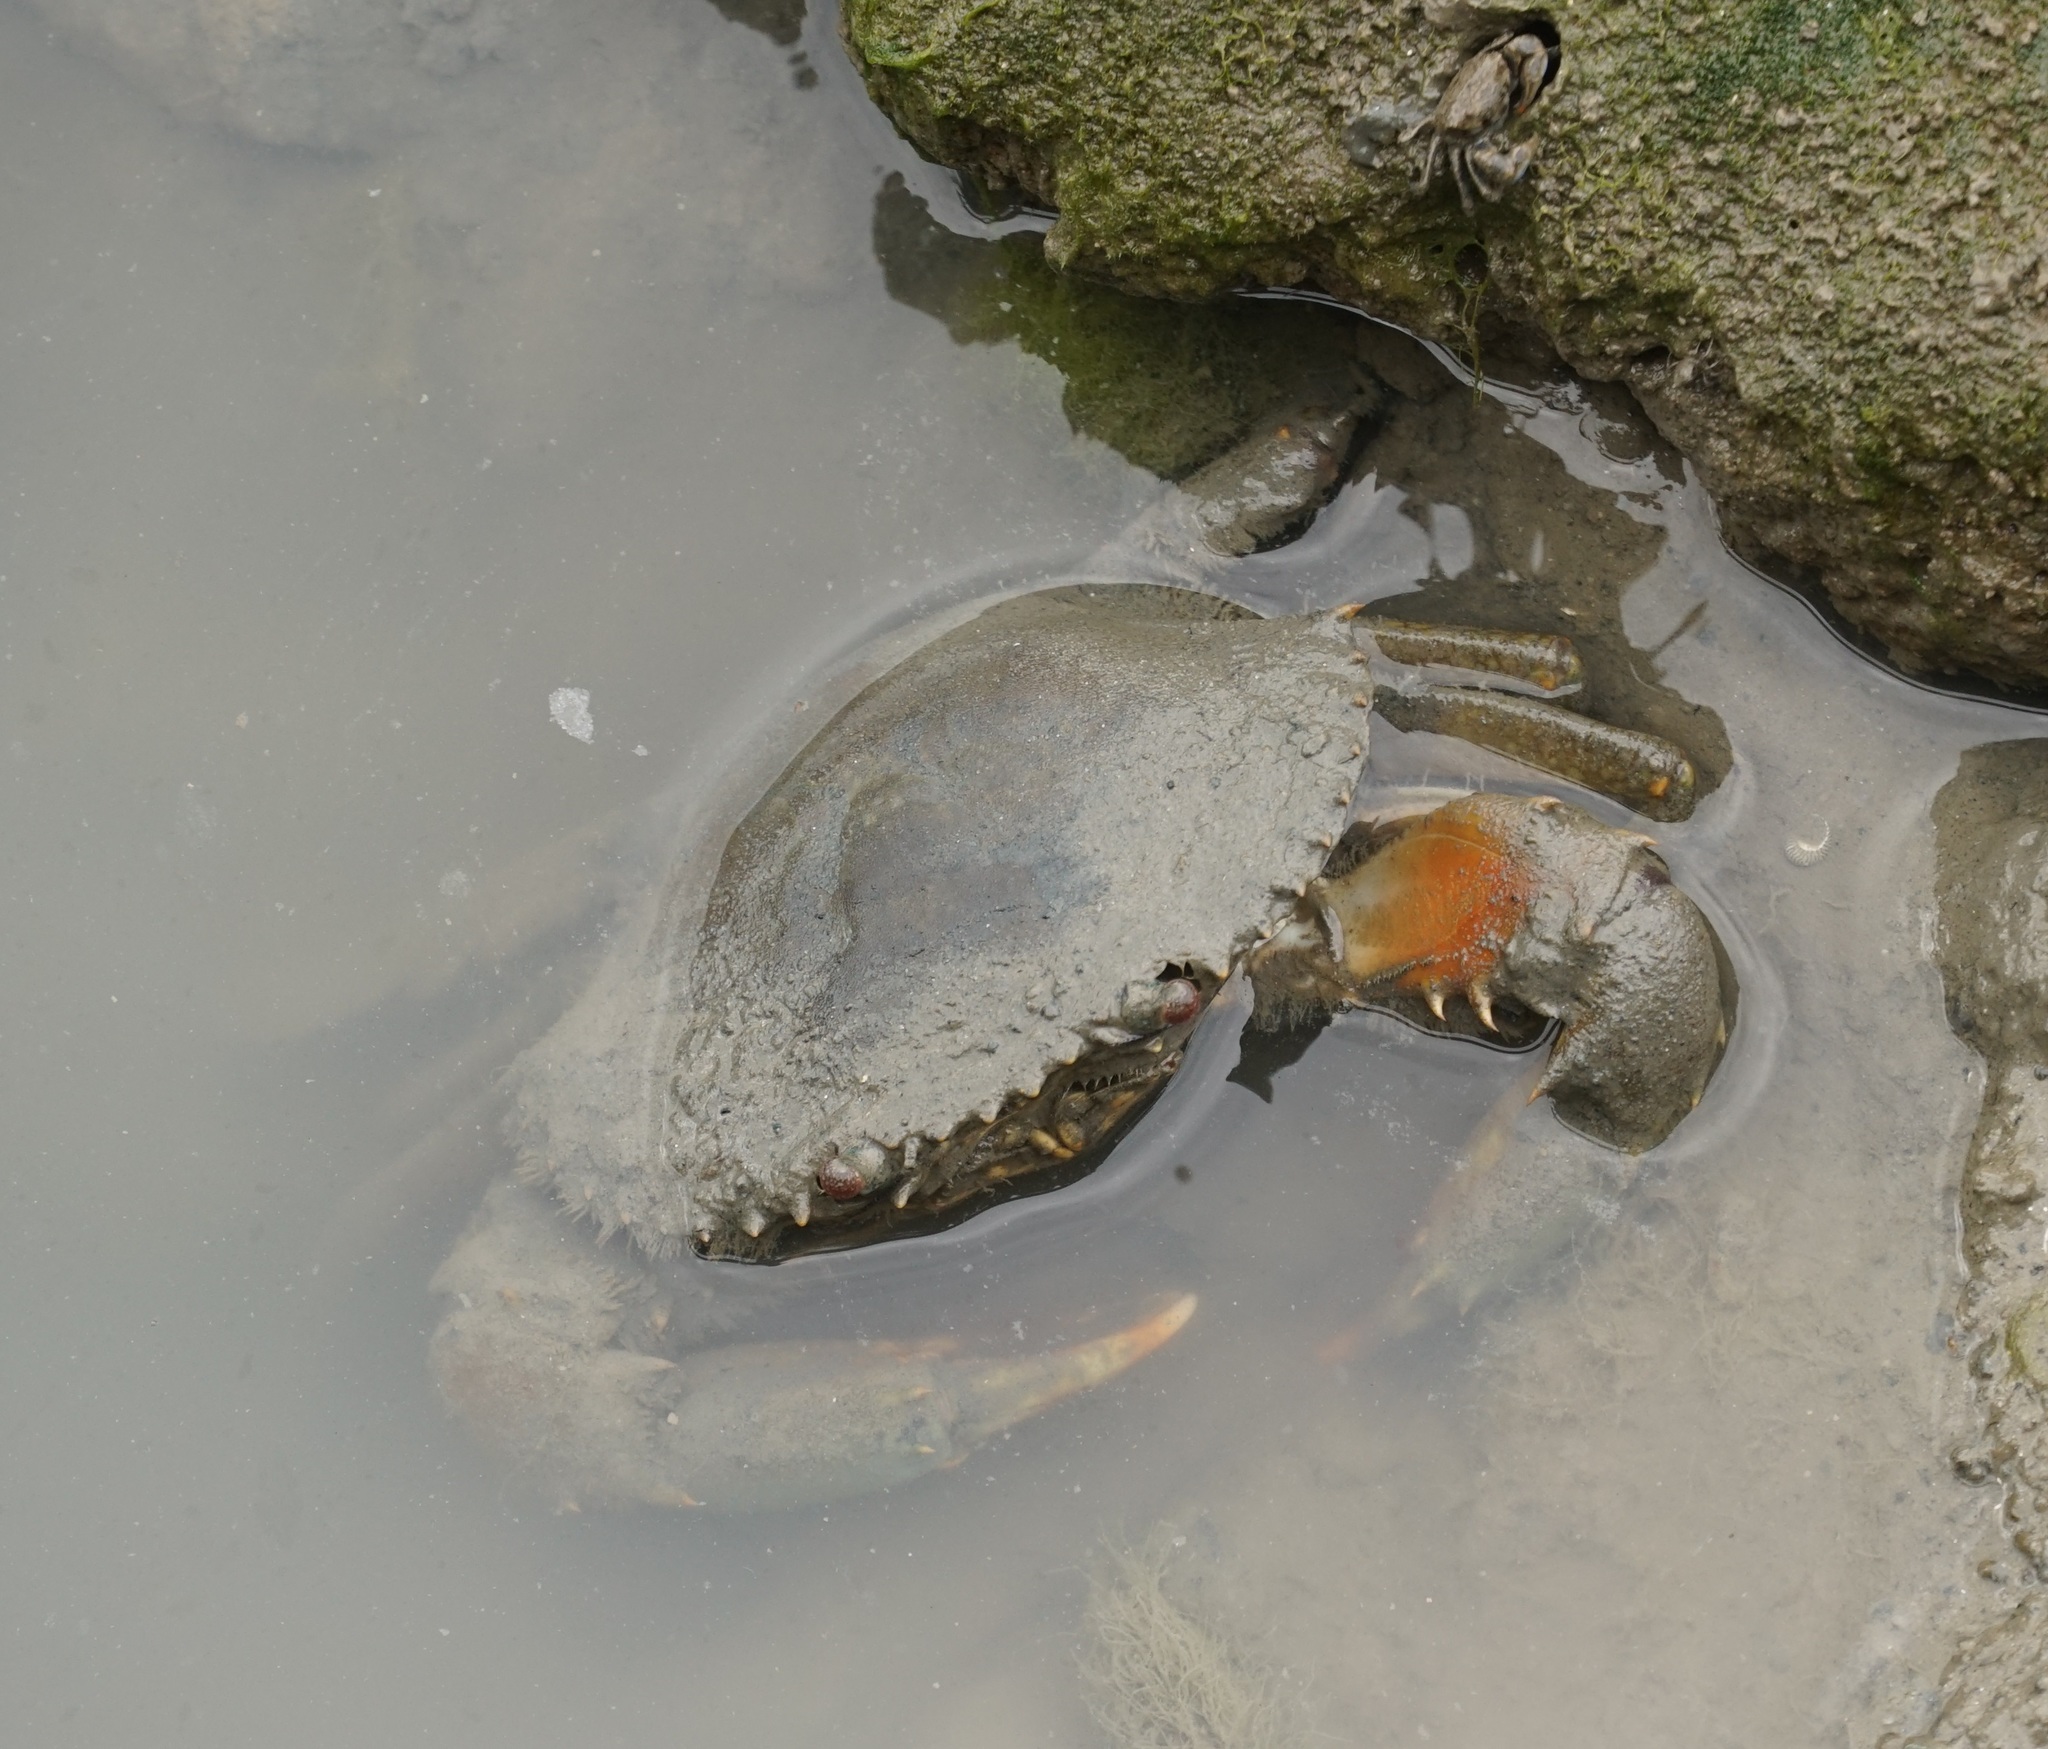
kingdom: Animalia
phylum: Arthropoda
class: Malacostraca
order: Decapoda
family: Portunidae
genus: Scylla
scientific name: Scylla serrata
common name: Giant mud crab
